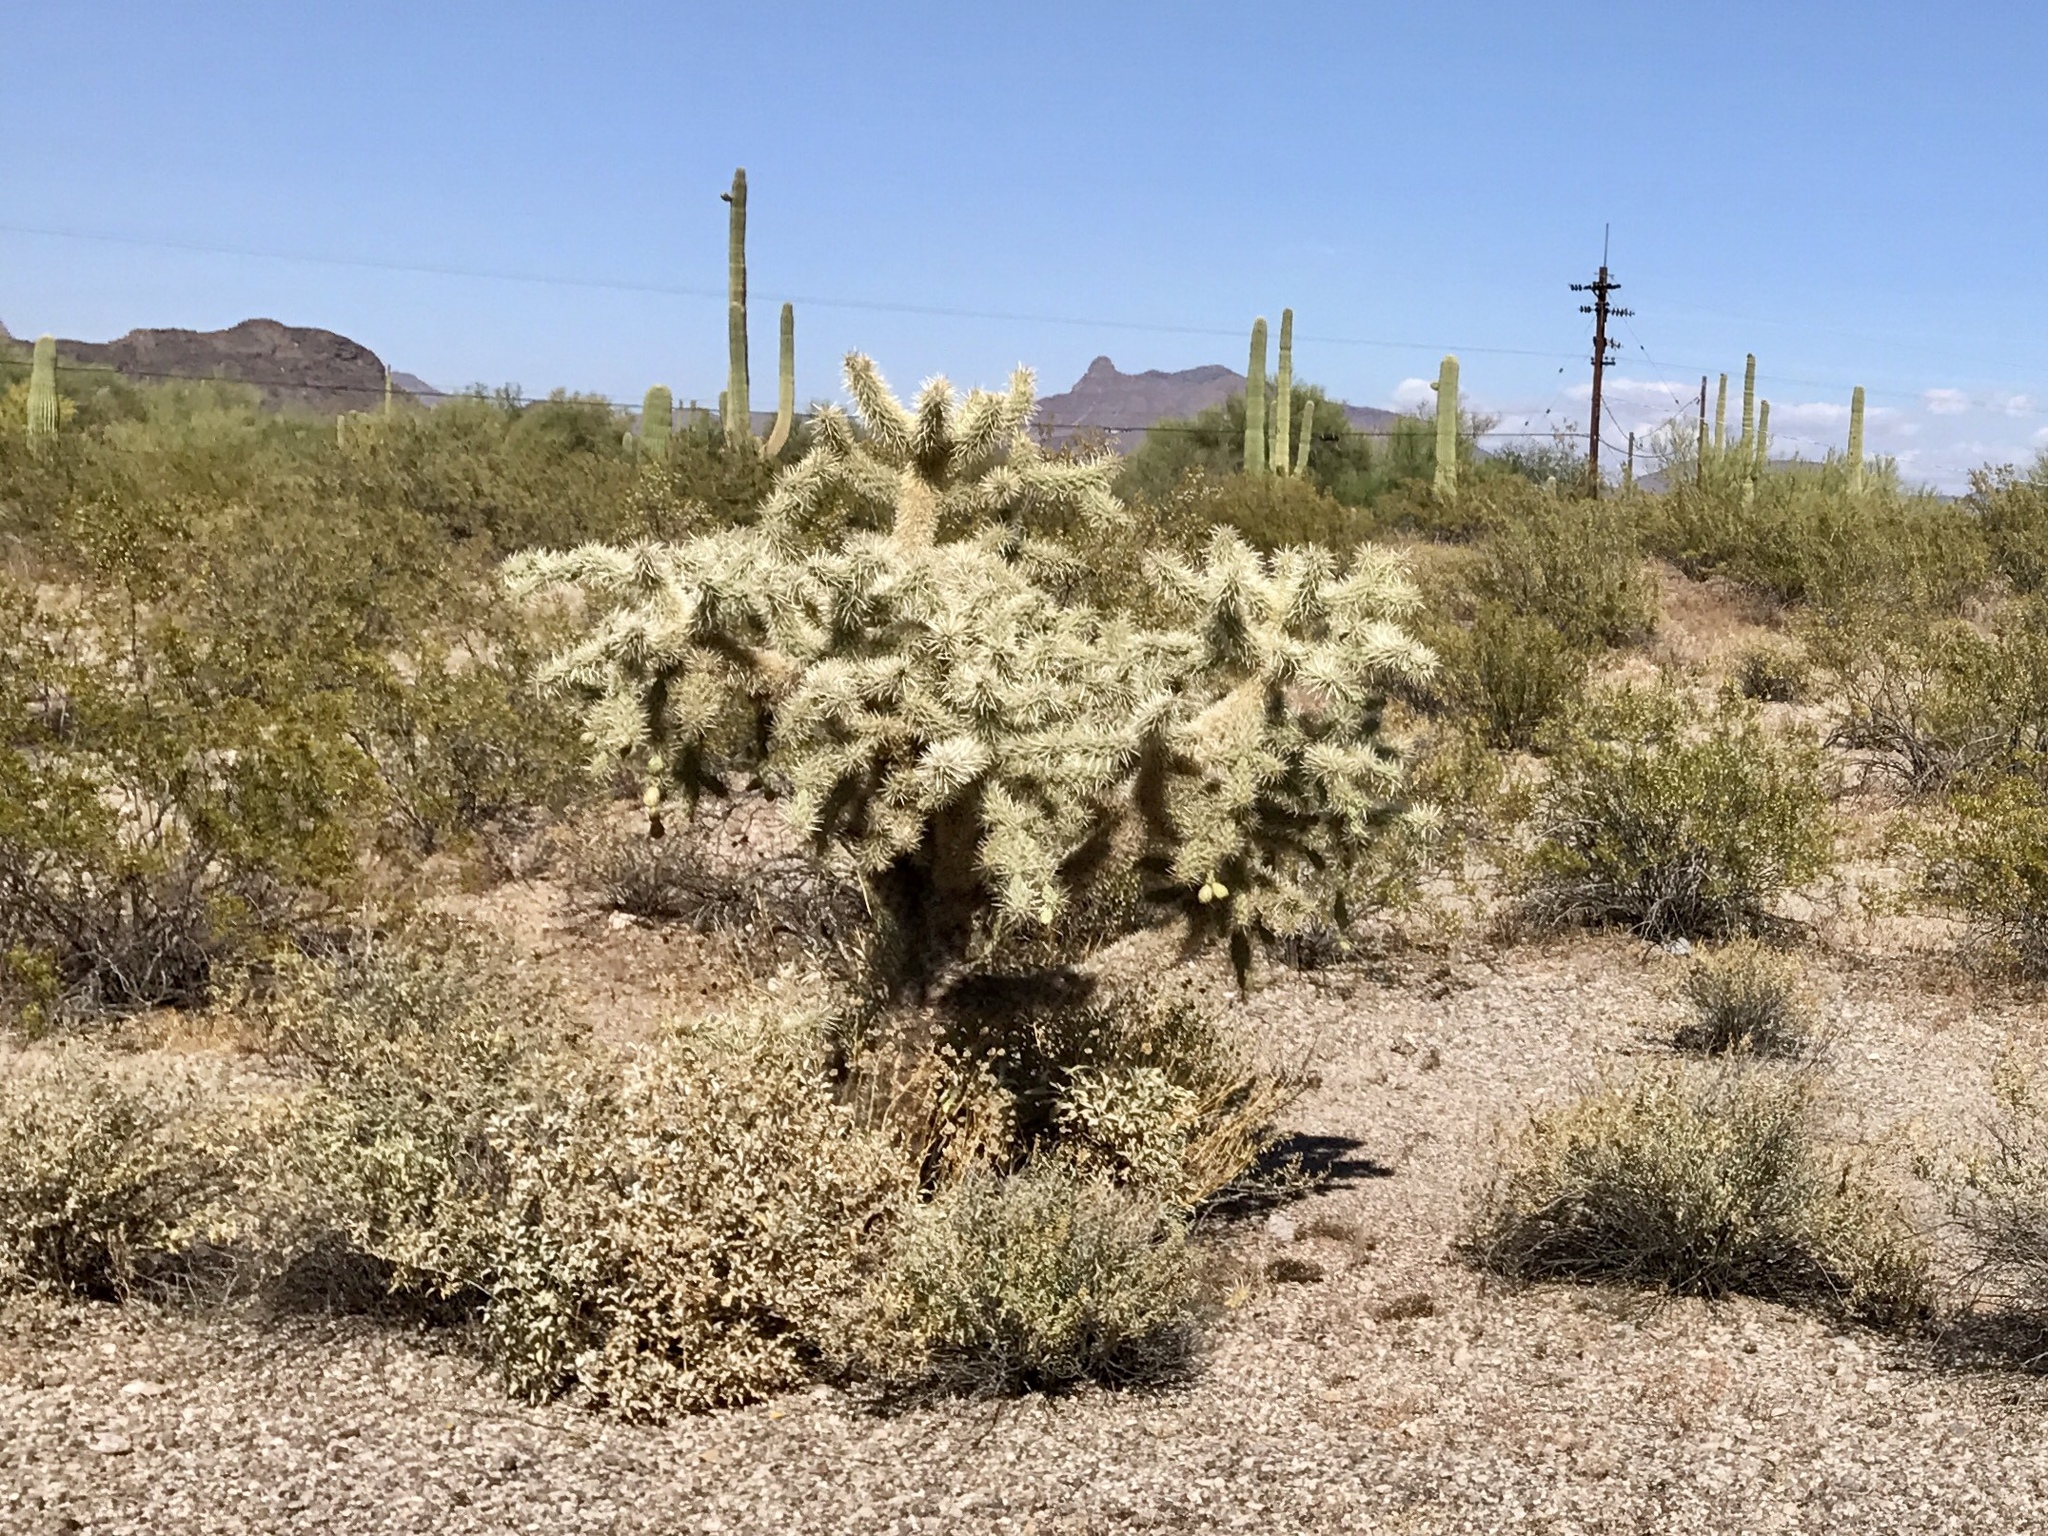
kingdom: Plantae
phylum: Tracheophyta
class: Magnoliopsida
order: Caryophyllales
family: Cactaceae
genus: Cylindropuntia
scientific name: Cylindropuntia fulgida
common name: Jumping cholla
